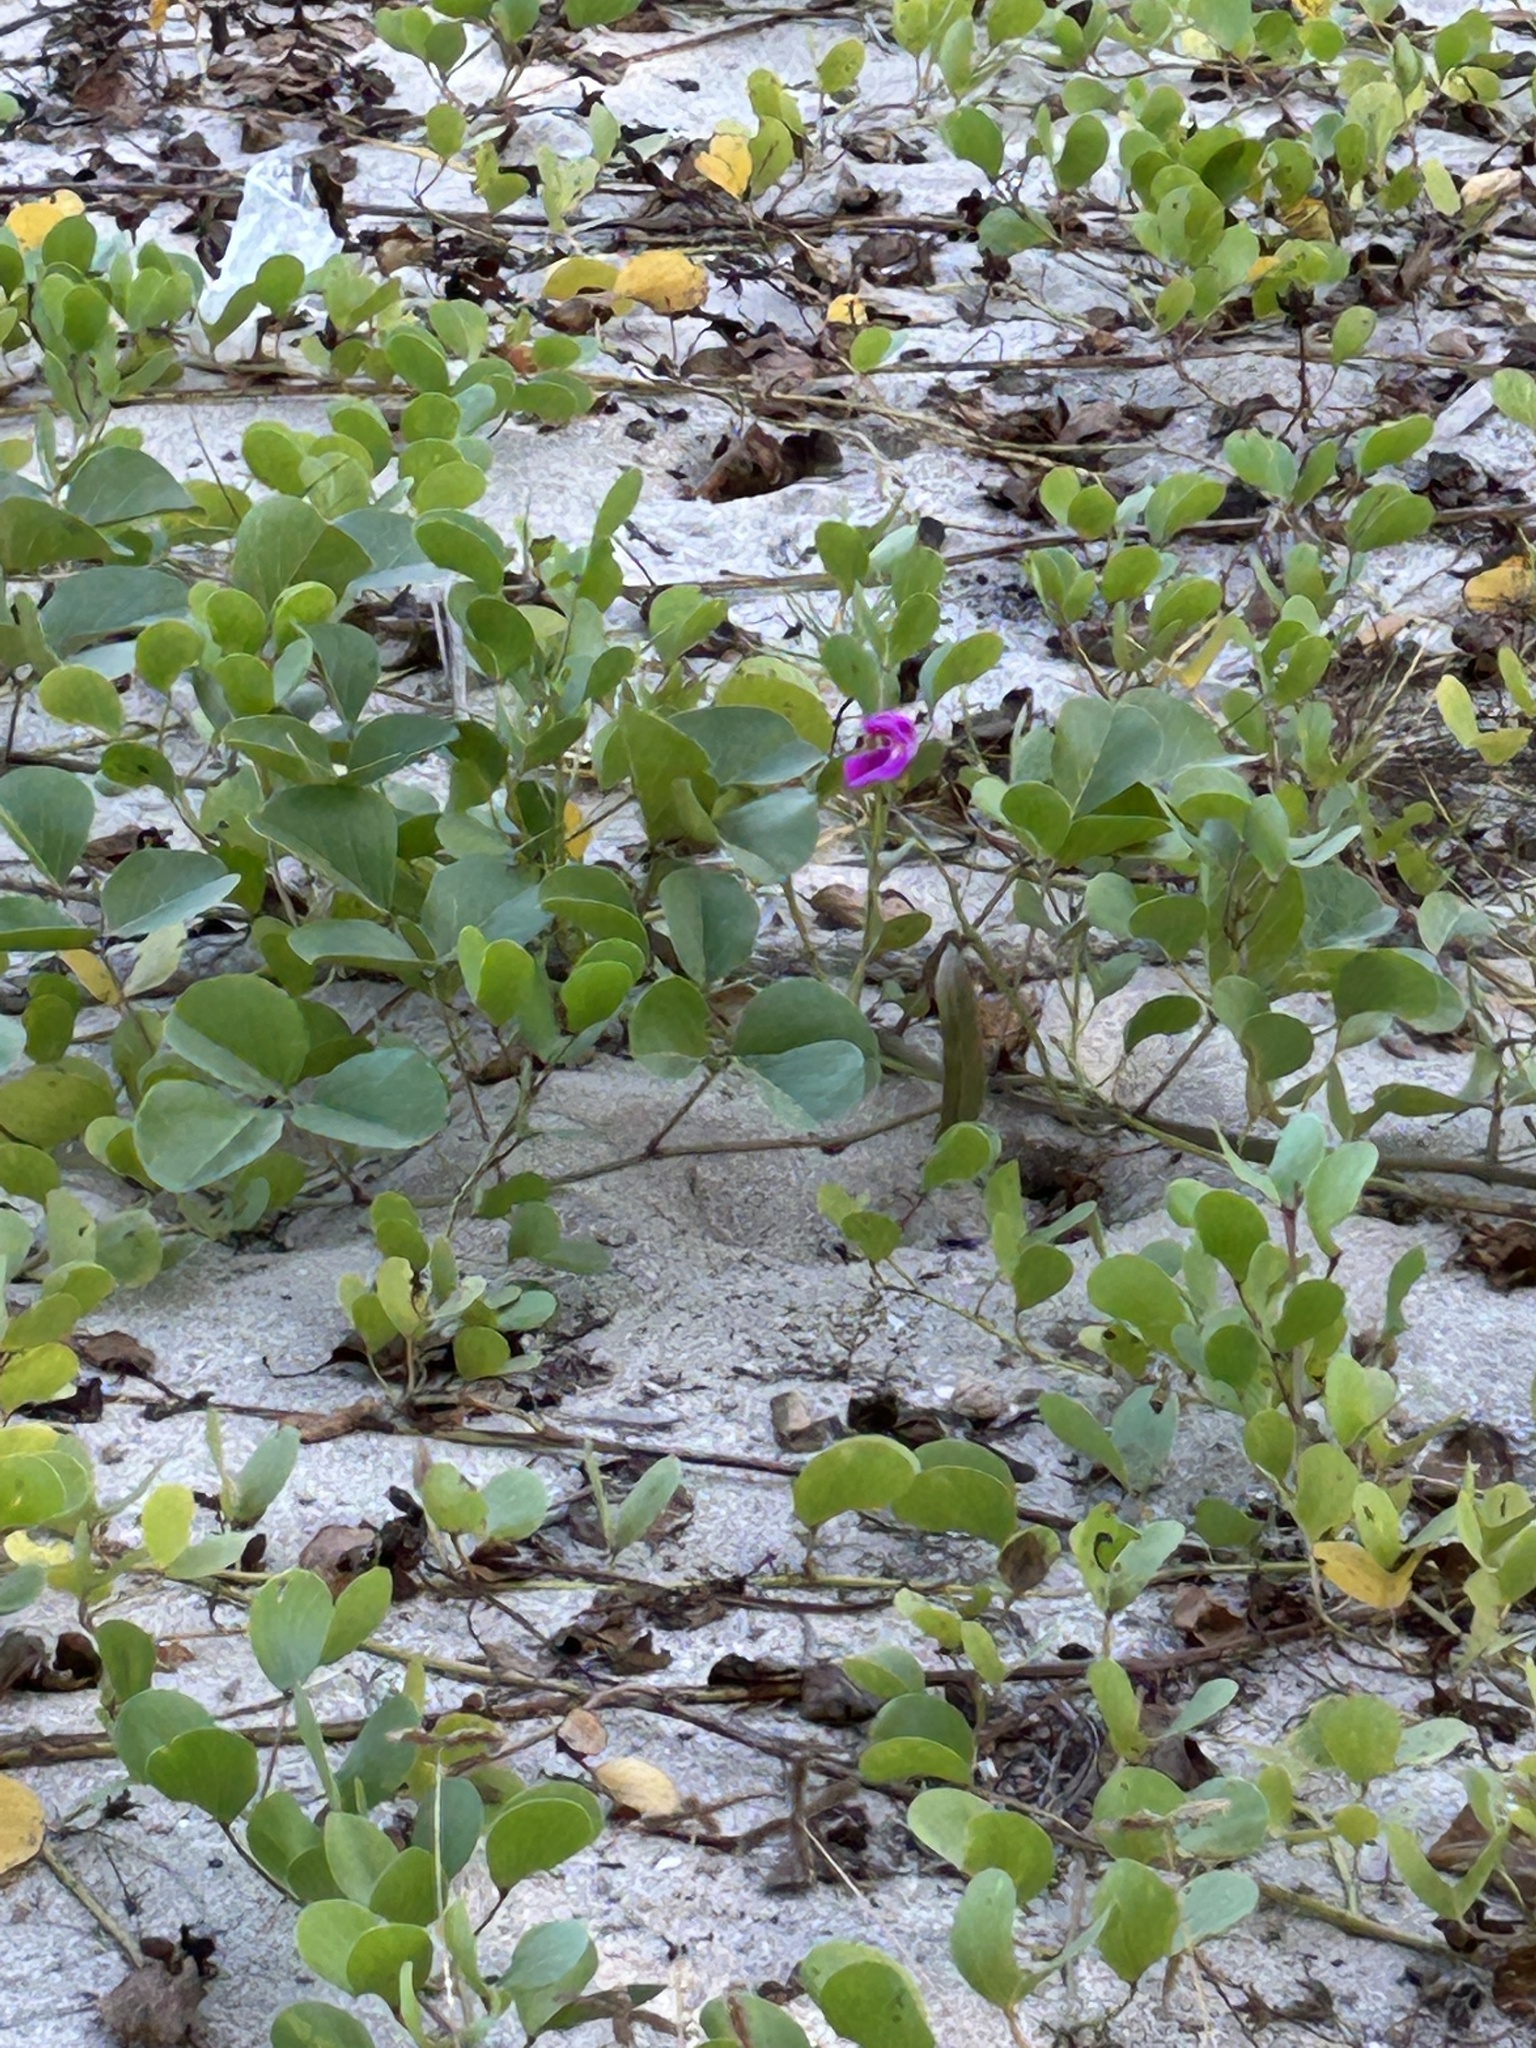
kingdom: Plantae
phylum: Tracheophyta
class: Magnoliopsida
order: Solanales
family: Convolvulaceae
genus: Ipomoea
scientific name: Ipomoea pes-caprae
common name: Beach morning glory
